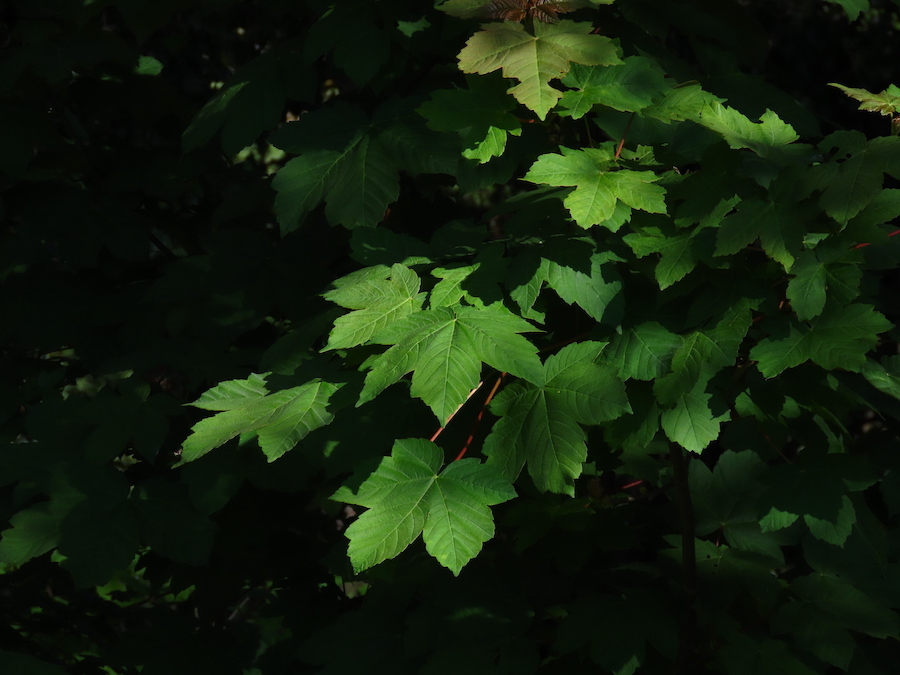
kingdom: Plantae
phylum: Tracheophyta
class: Magnoliopsida
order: Sapindales
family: Sapindaceae
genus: Acer
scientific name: Acer pseudoplatanus
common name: Sycamore
